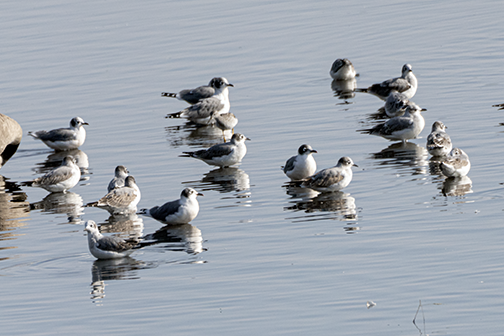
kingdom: Animalia
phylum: Chordata
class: Aves
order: Charadriiformes
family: Laridae
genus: Leucophaeus
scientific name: Leucophaeus pipixcan
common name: Franklin's gull
